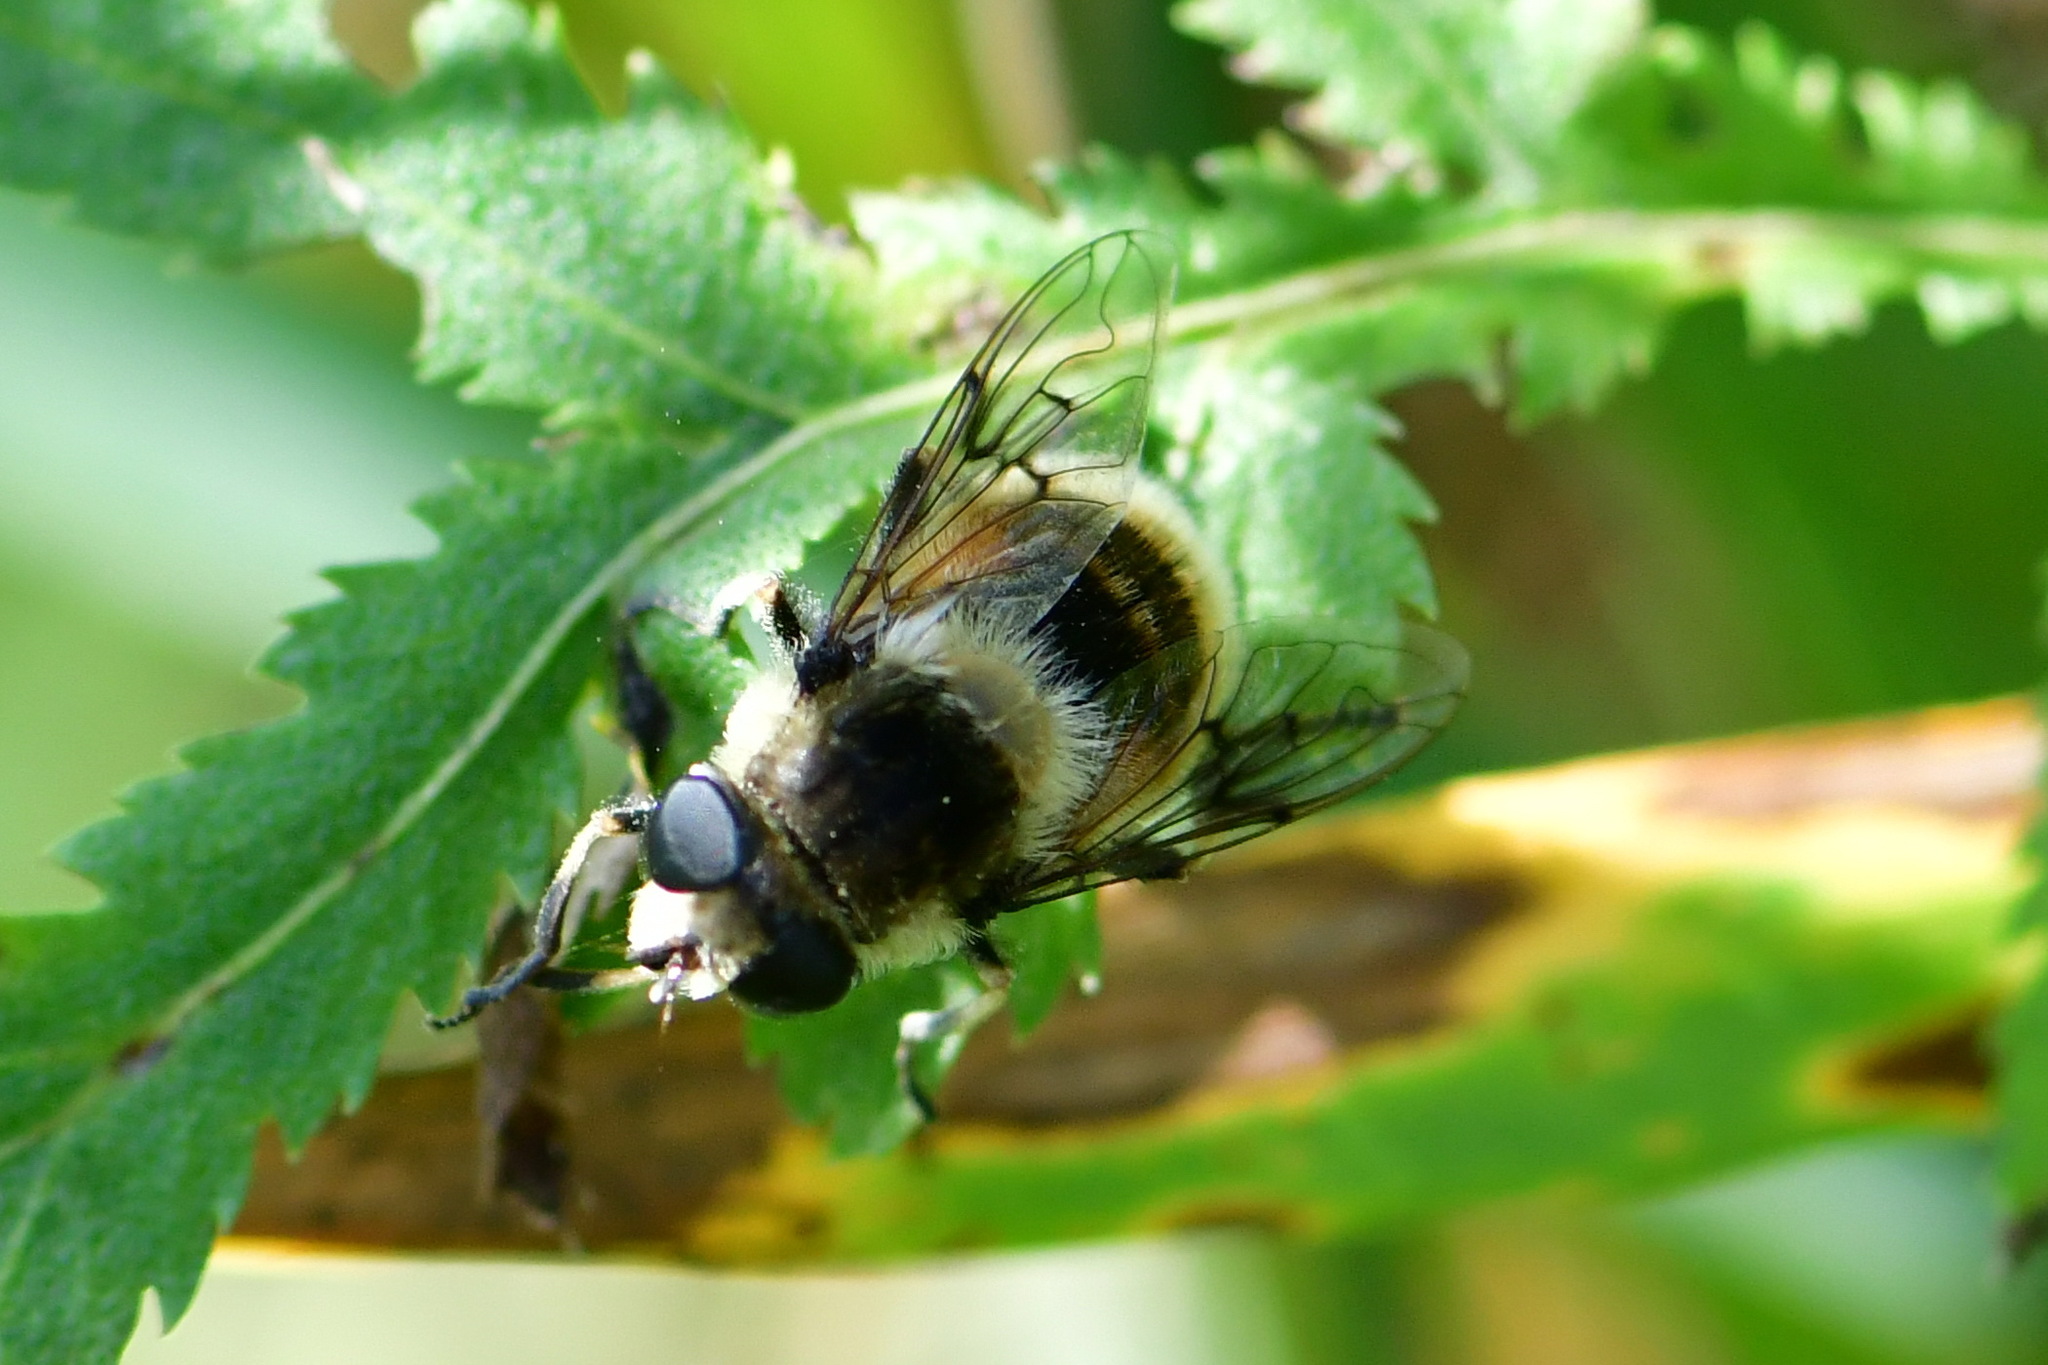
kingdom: Animalia
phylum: Arthropoda
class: Insecta
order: Diptera
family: Syrphidae
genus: Eristalis
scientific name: Eristalis anthophorina
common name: Orange-spotted drone fly
